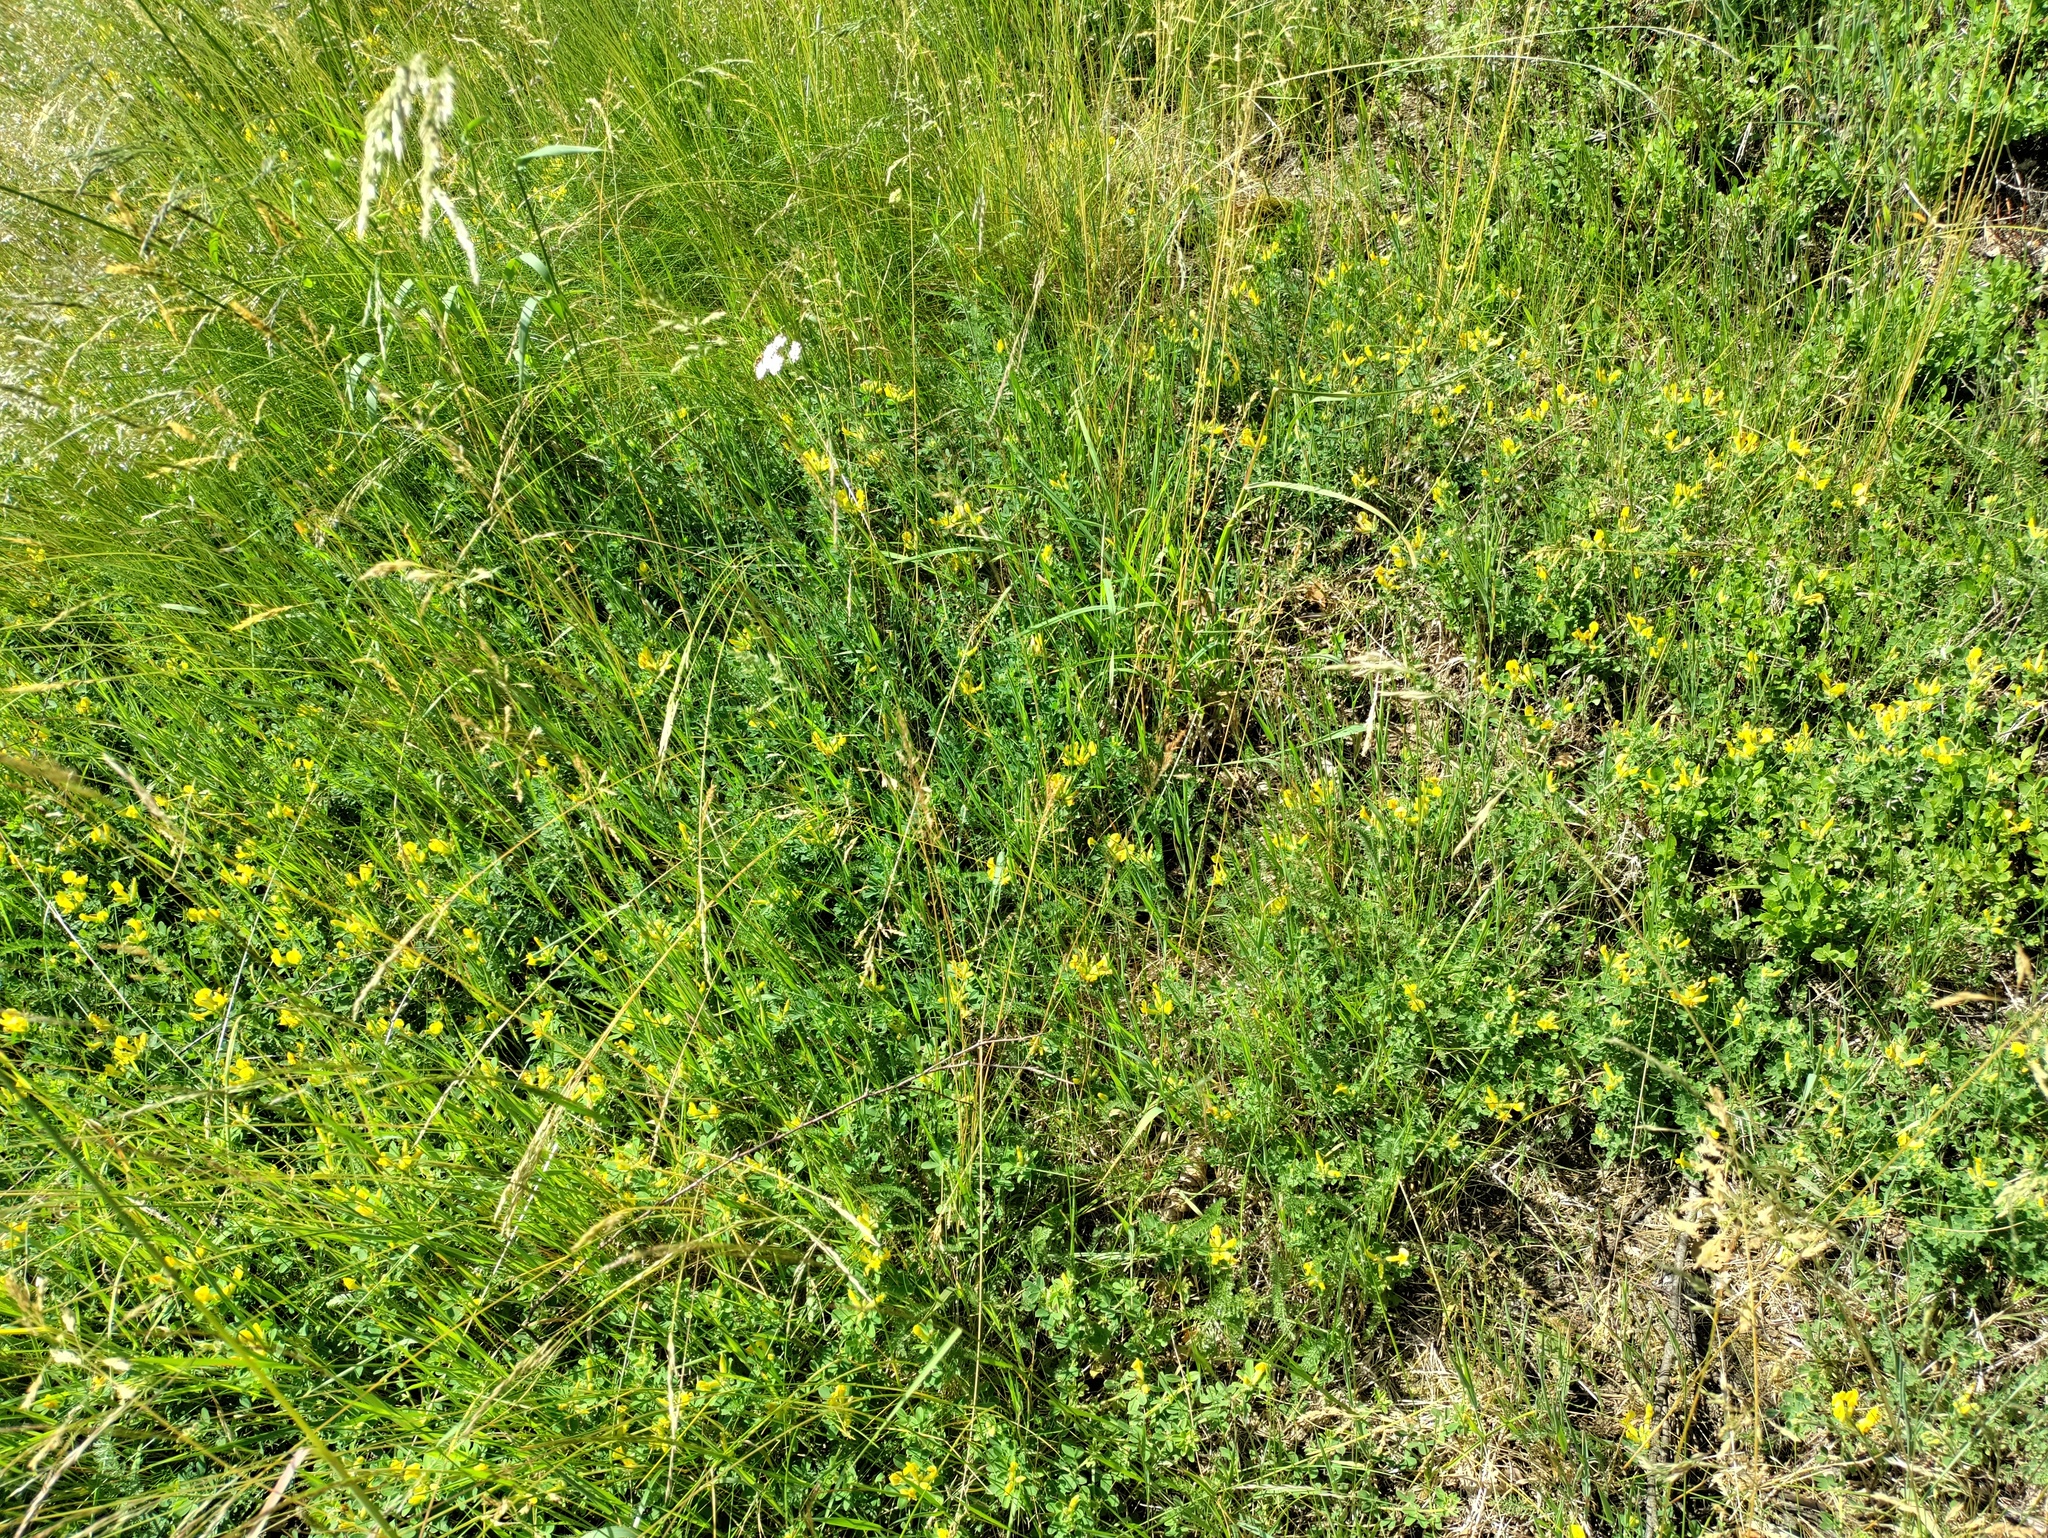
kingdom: Plantae
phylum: Tracheophyta
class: Magnoliopsida
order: Fabales
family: Fabaceae
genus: Chamaecytisus
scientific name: Chamaecytisus supinus
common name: Clustered broom
